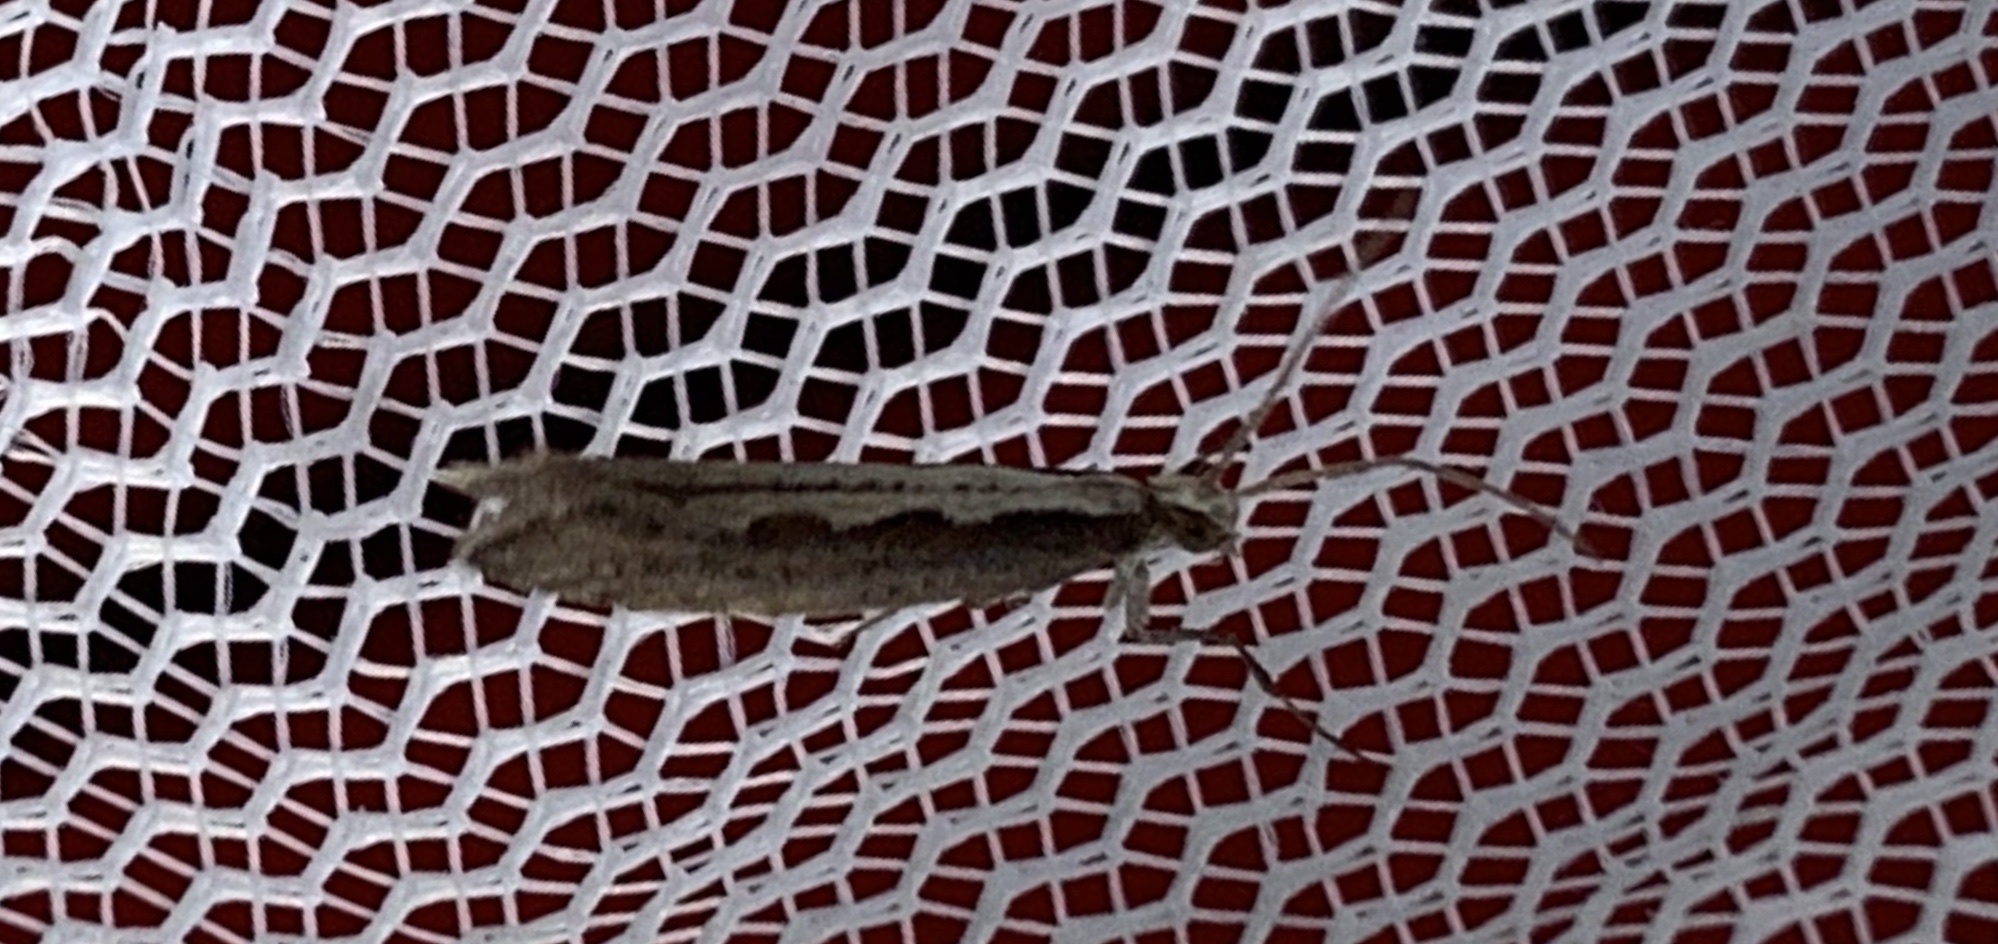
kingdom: Animalia
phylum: Arthropoda
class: Insecta
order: Lepidoptera
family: Plutellidae
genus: Plutella
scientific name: Plutella xylostella
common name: Diamond-back moth
